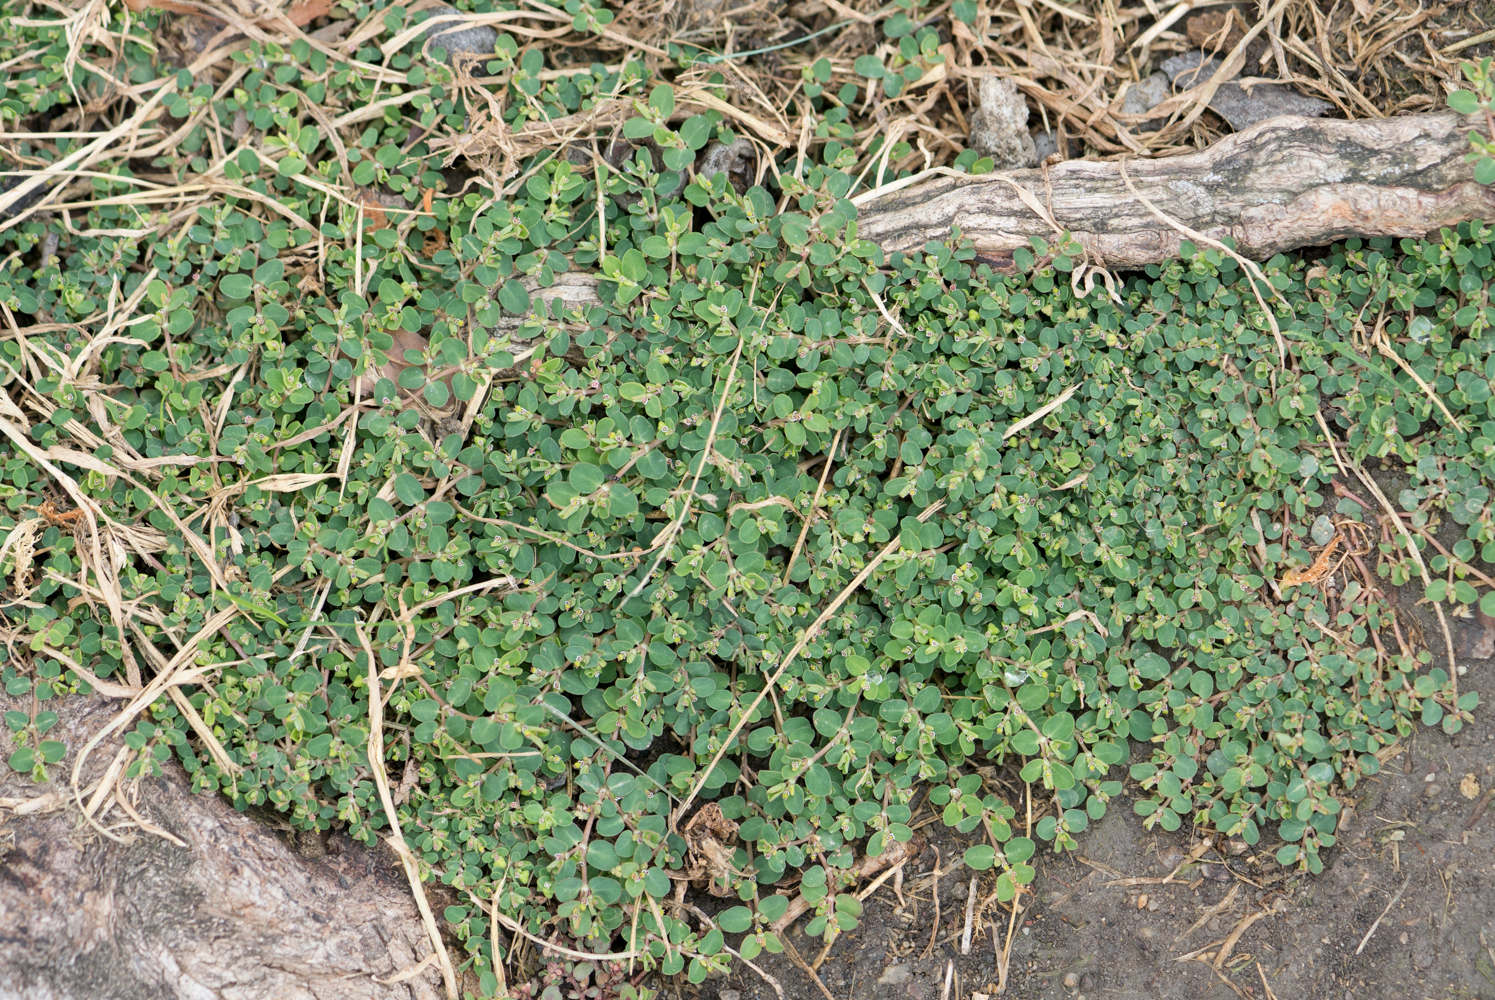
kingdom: Plantae
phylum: Tracheophyta
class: Magnoliopsida
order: Malpighiales
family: Euphorbiaceae
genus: Euphorbia
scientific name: Euphorbia serpens
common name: Matted sandmat
